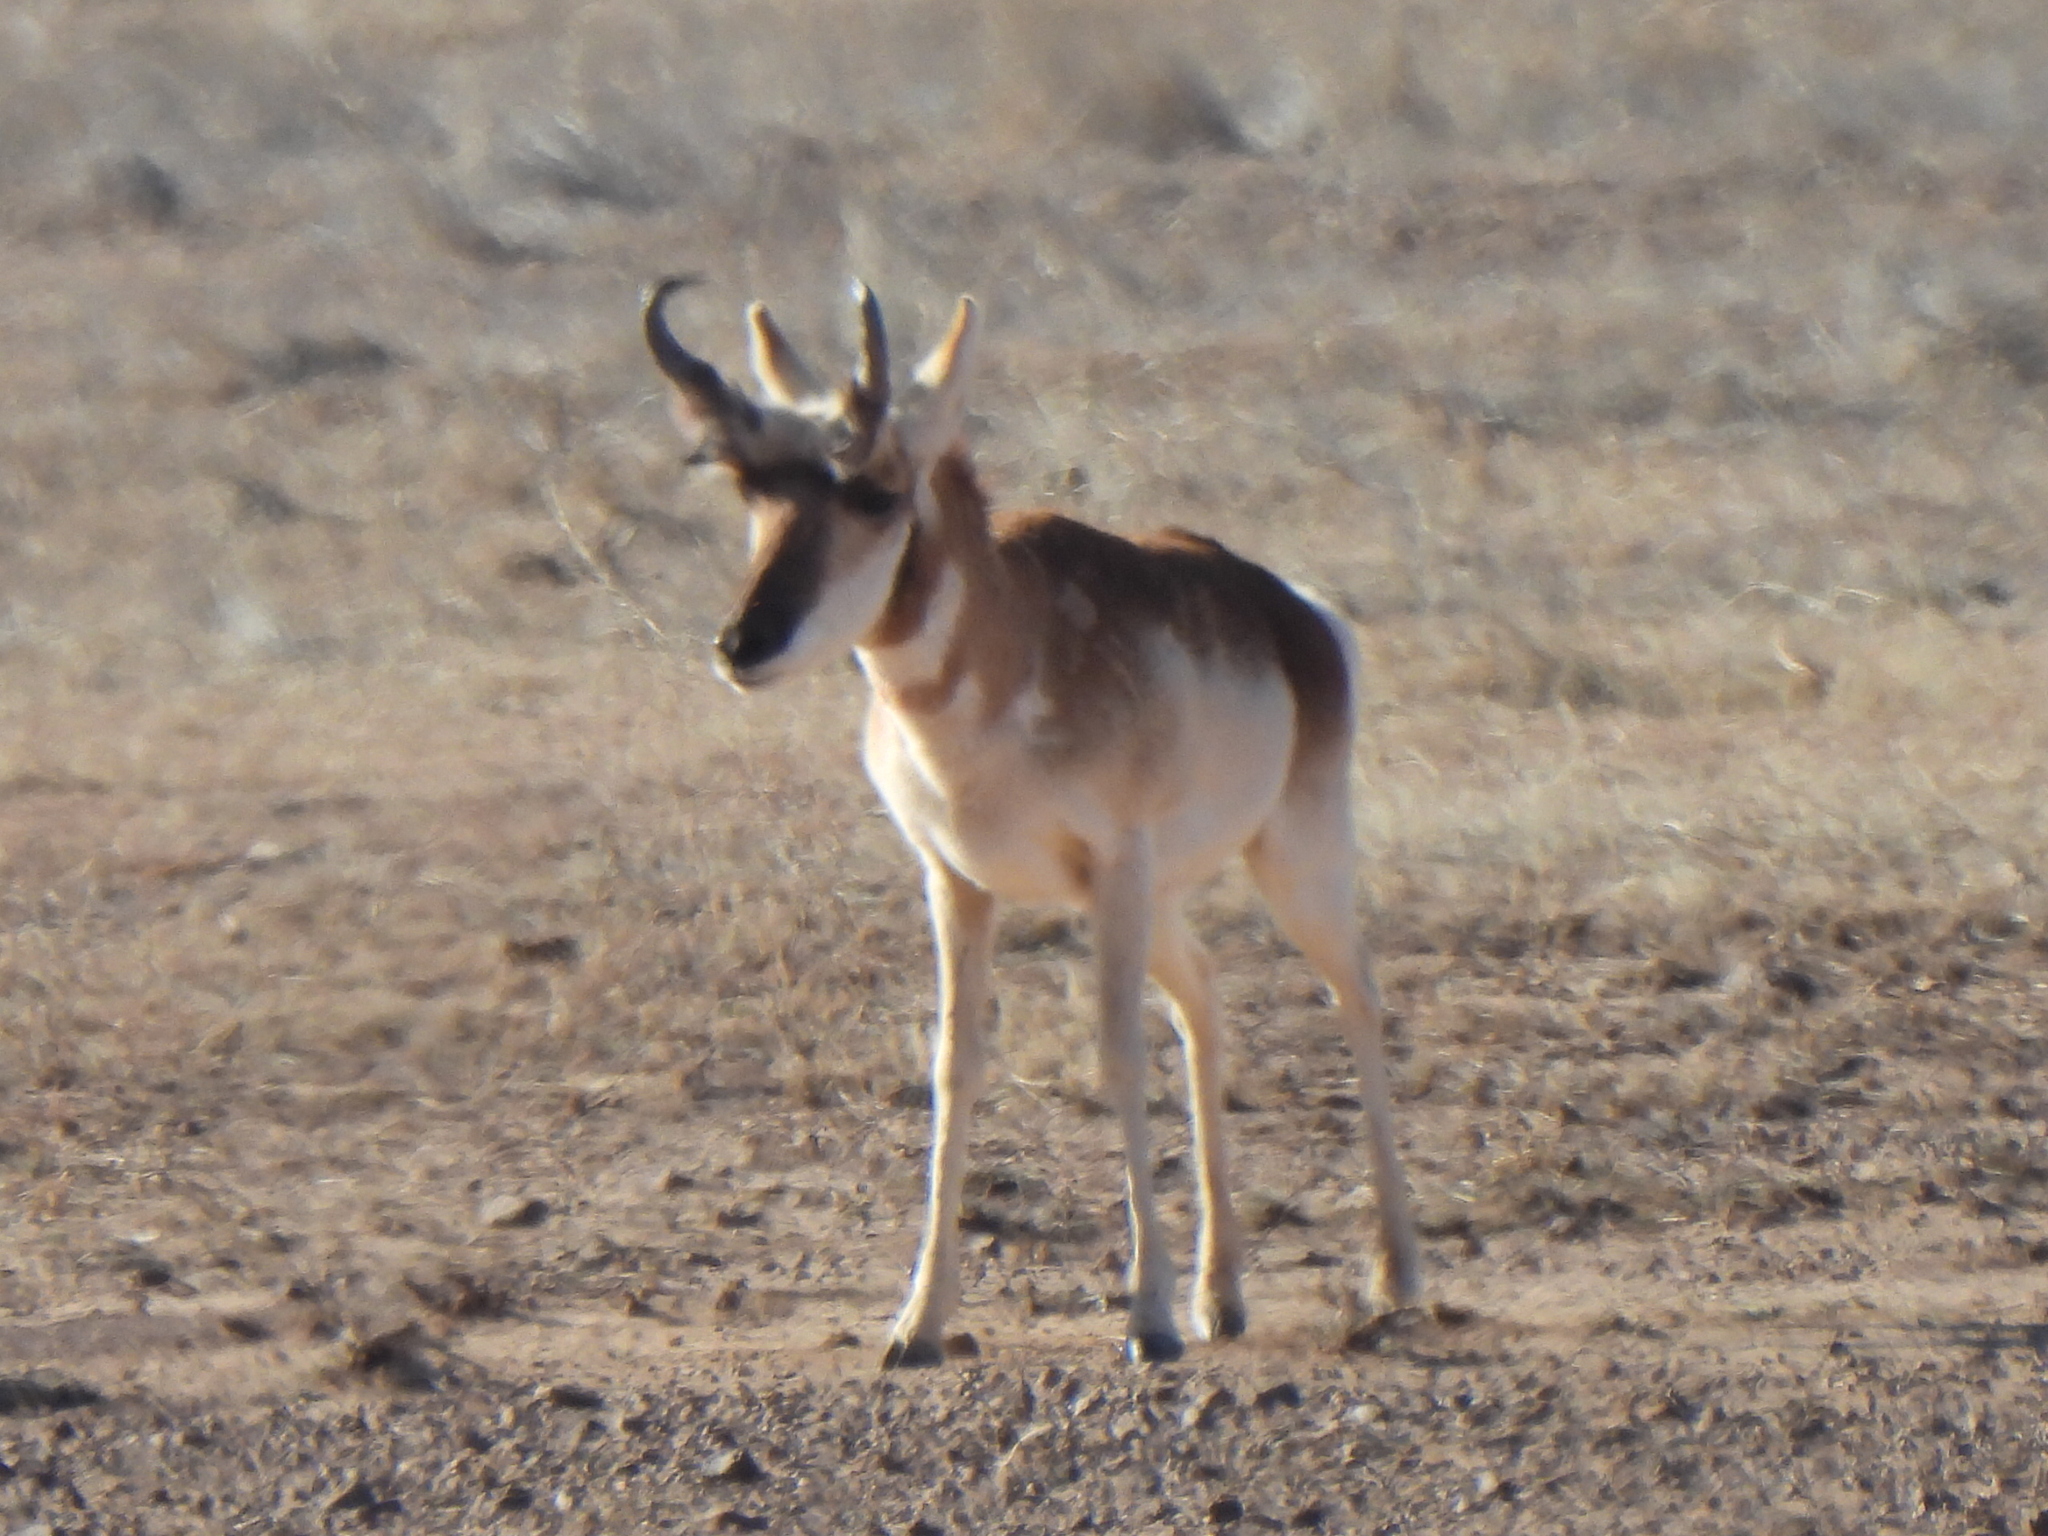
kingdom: Animalia
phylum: Chordata
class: Mammalia
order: Artiodactyla
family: Antilocapridae
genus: Antilocapra
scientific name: Antilocapra americana
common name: Pronghorn
